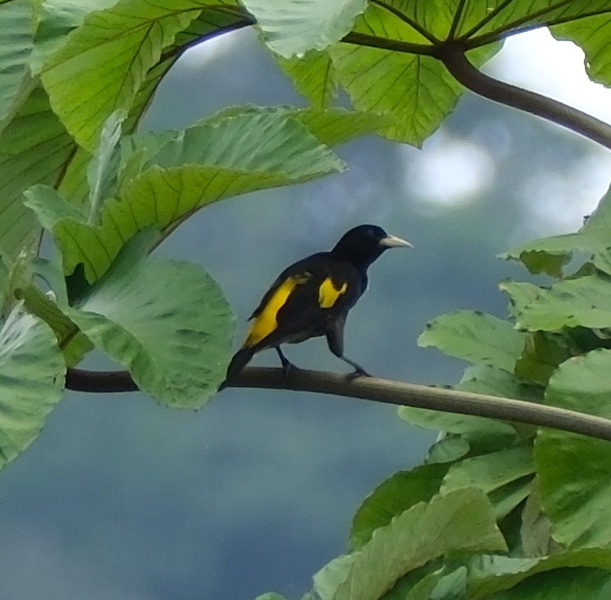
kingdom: Animalia
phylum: Chordata
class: Aves
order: Passeriformes
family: Icteridae
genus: Cacicus
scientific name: Cacicus cela
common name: Yellow-rumped cacique
